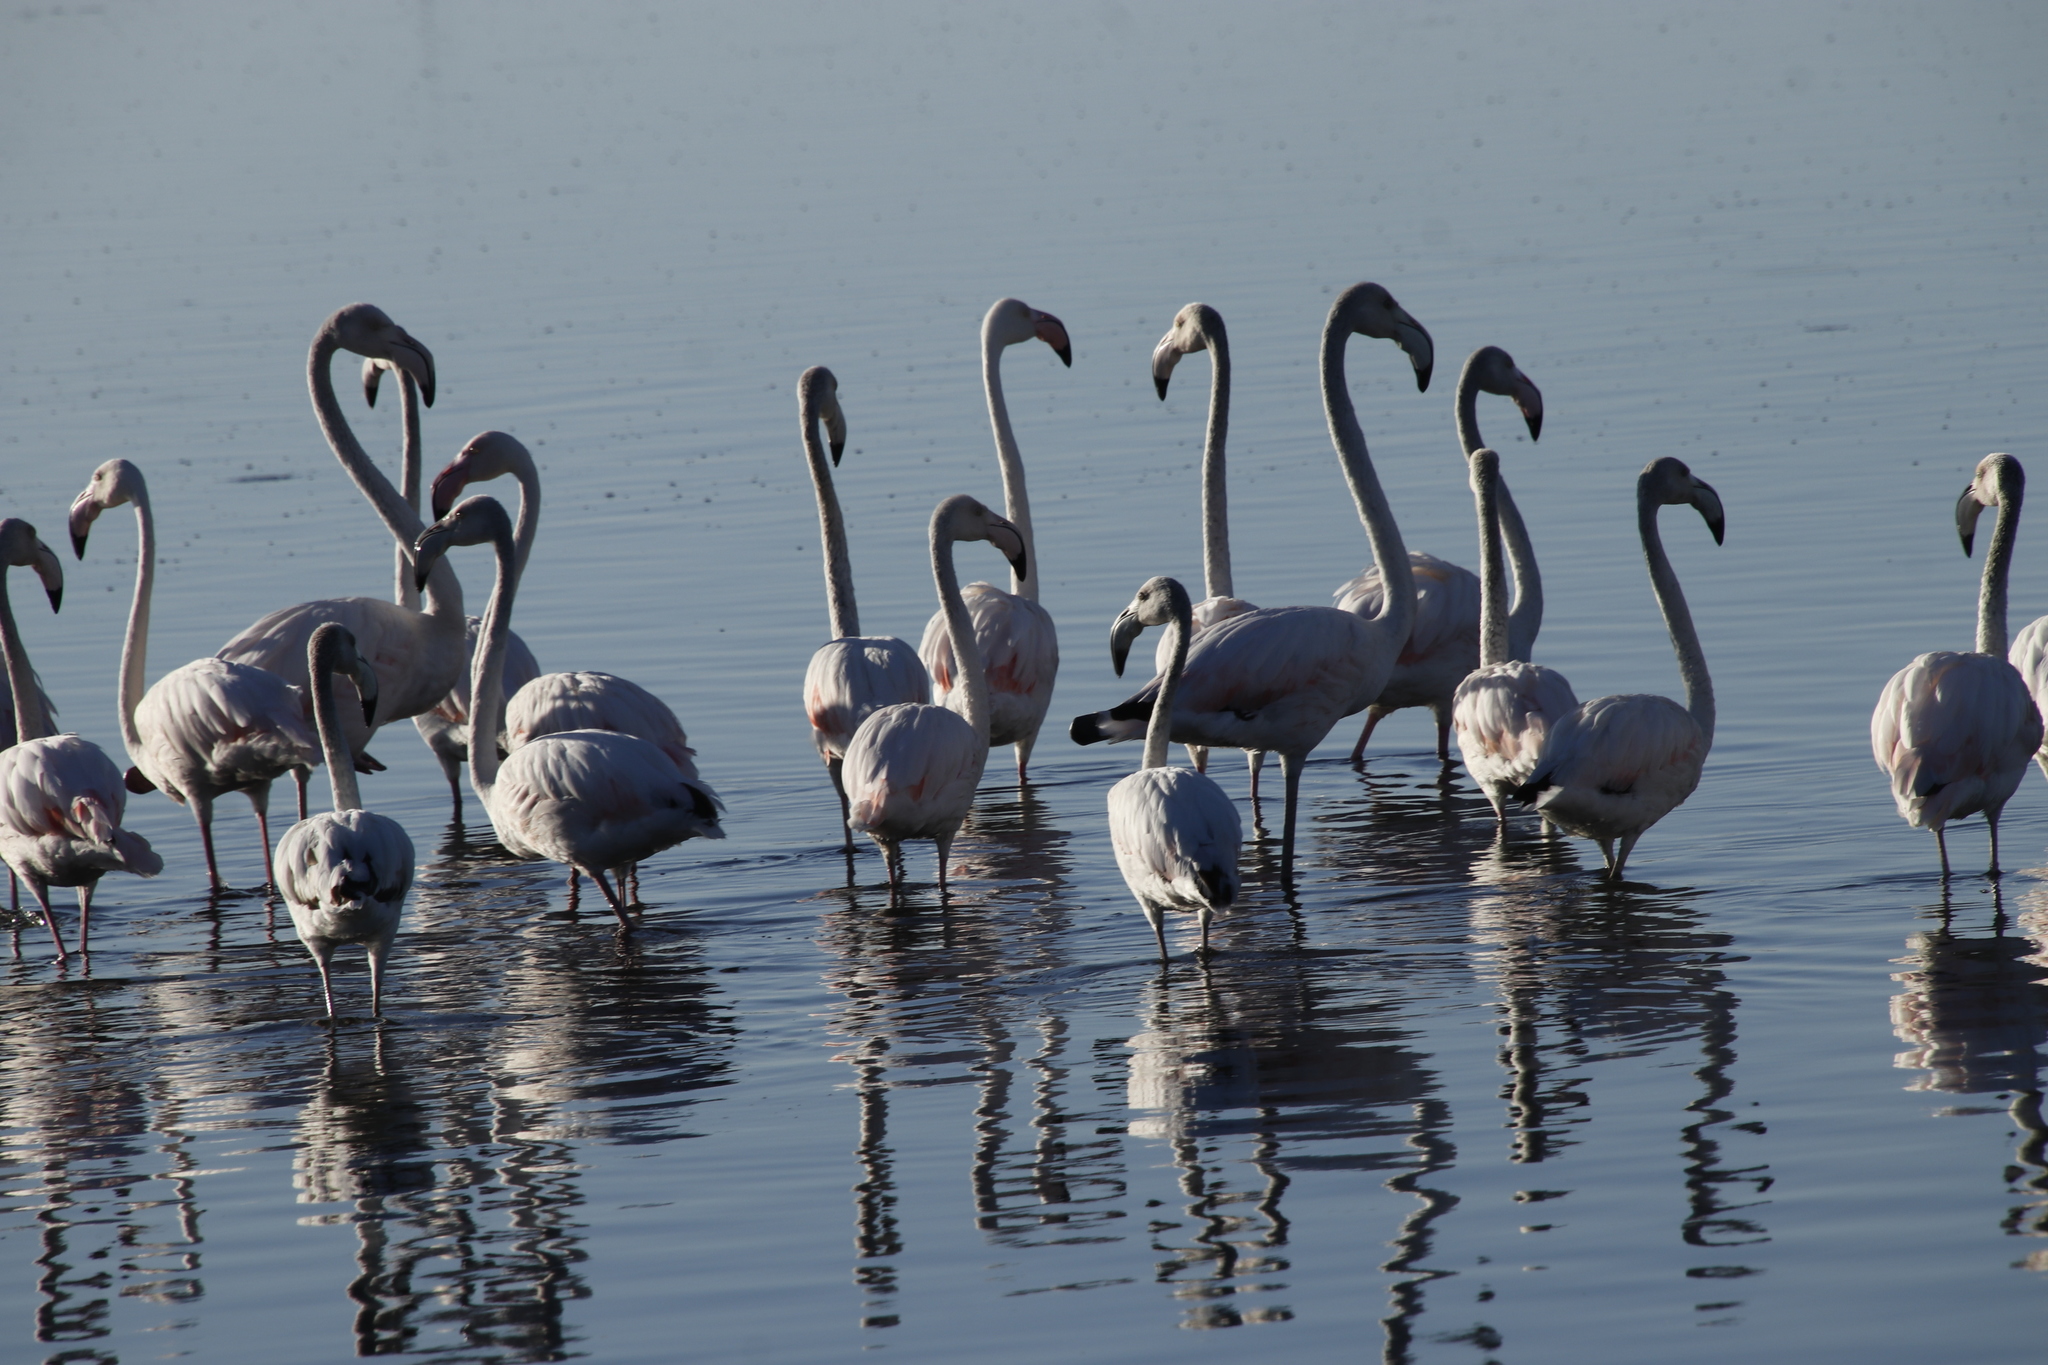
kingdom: Animalia
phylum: Chordata
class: Aves
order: Phoenicopteriformes
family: Phoenicopteridae
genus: Phoenicopterus
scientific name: Phoenicopterus roseus
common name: Greater flamingo
